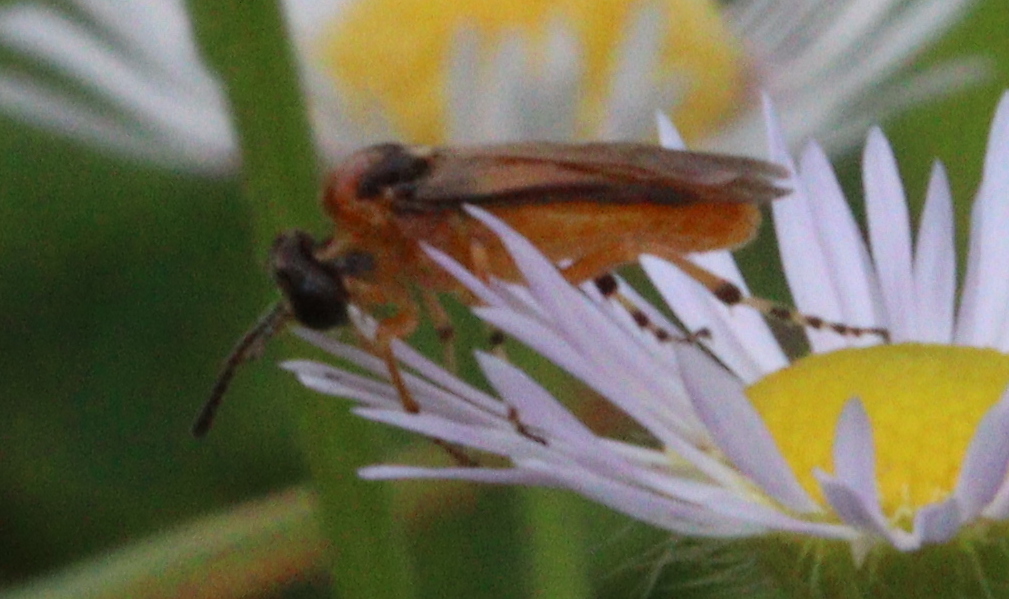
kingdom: Animalia
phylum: Arthropoda
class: Insecta
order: Hymenoptera
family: Tenthredinidae
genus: Athalia
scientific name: Athalia rosae
